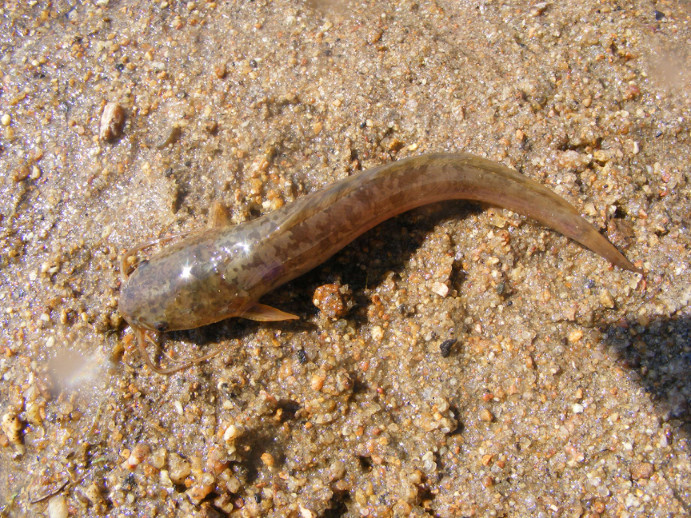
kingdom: Animalia
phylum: Chordata
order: Siluriformes
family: Clariidae
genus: Clarias
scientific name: Clarias gariepinus
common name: African catfish
